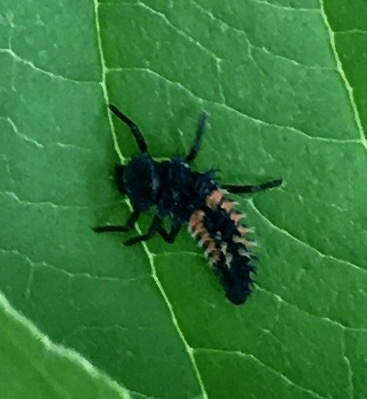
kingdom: Animalia
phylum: Arthropoda
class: Insecta
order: Coleoptera
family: Coccinellidae
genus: Harmonia
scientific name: Harmonia axyridis
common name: Harlequin ladybird
